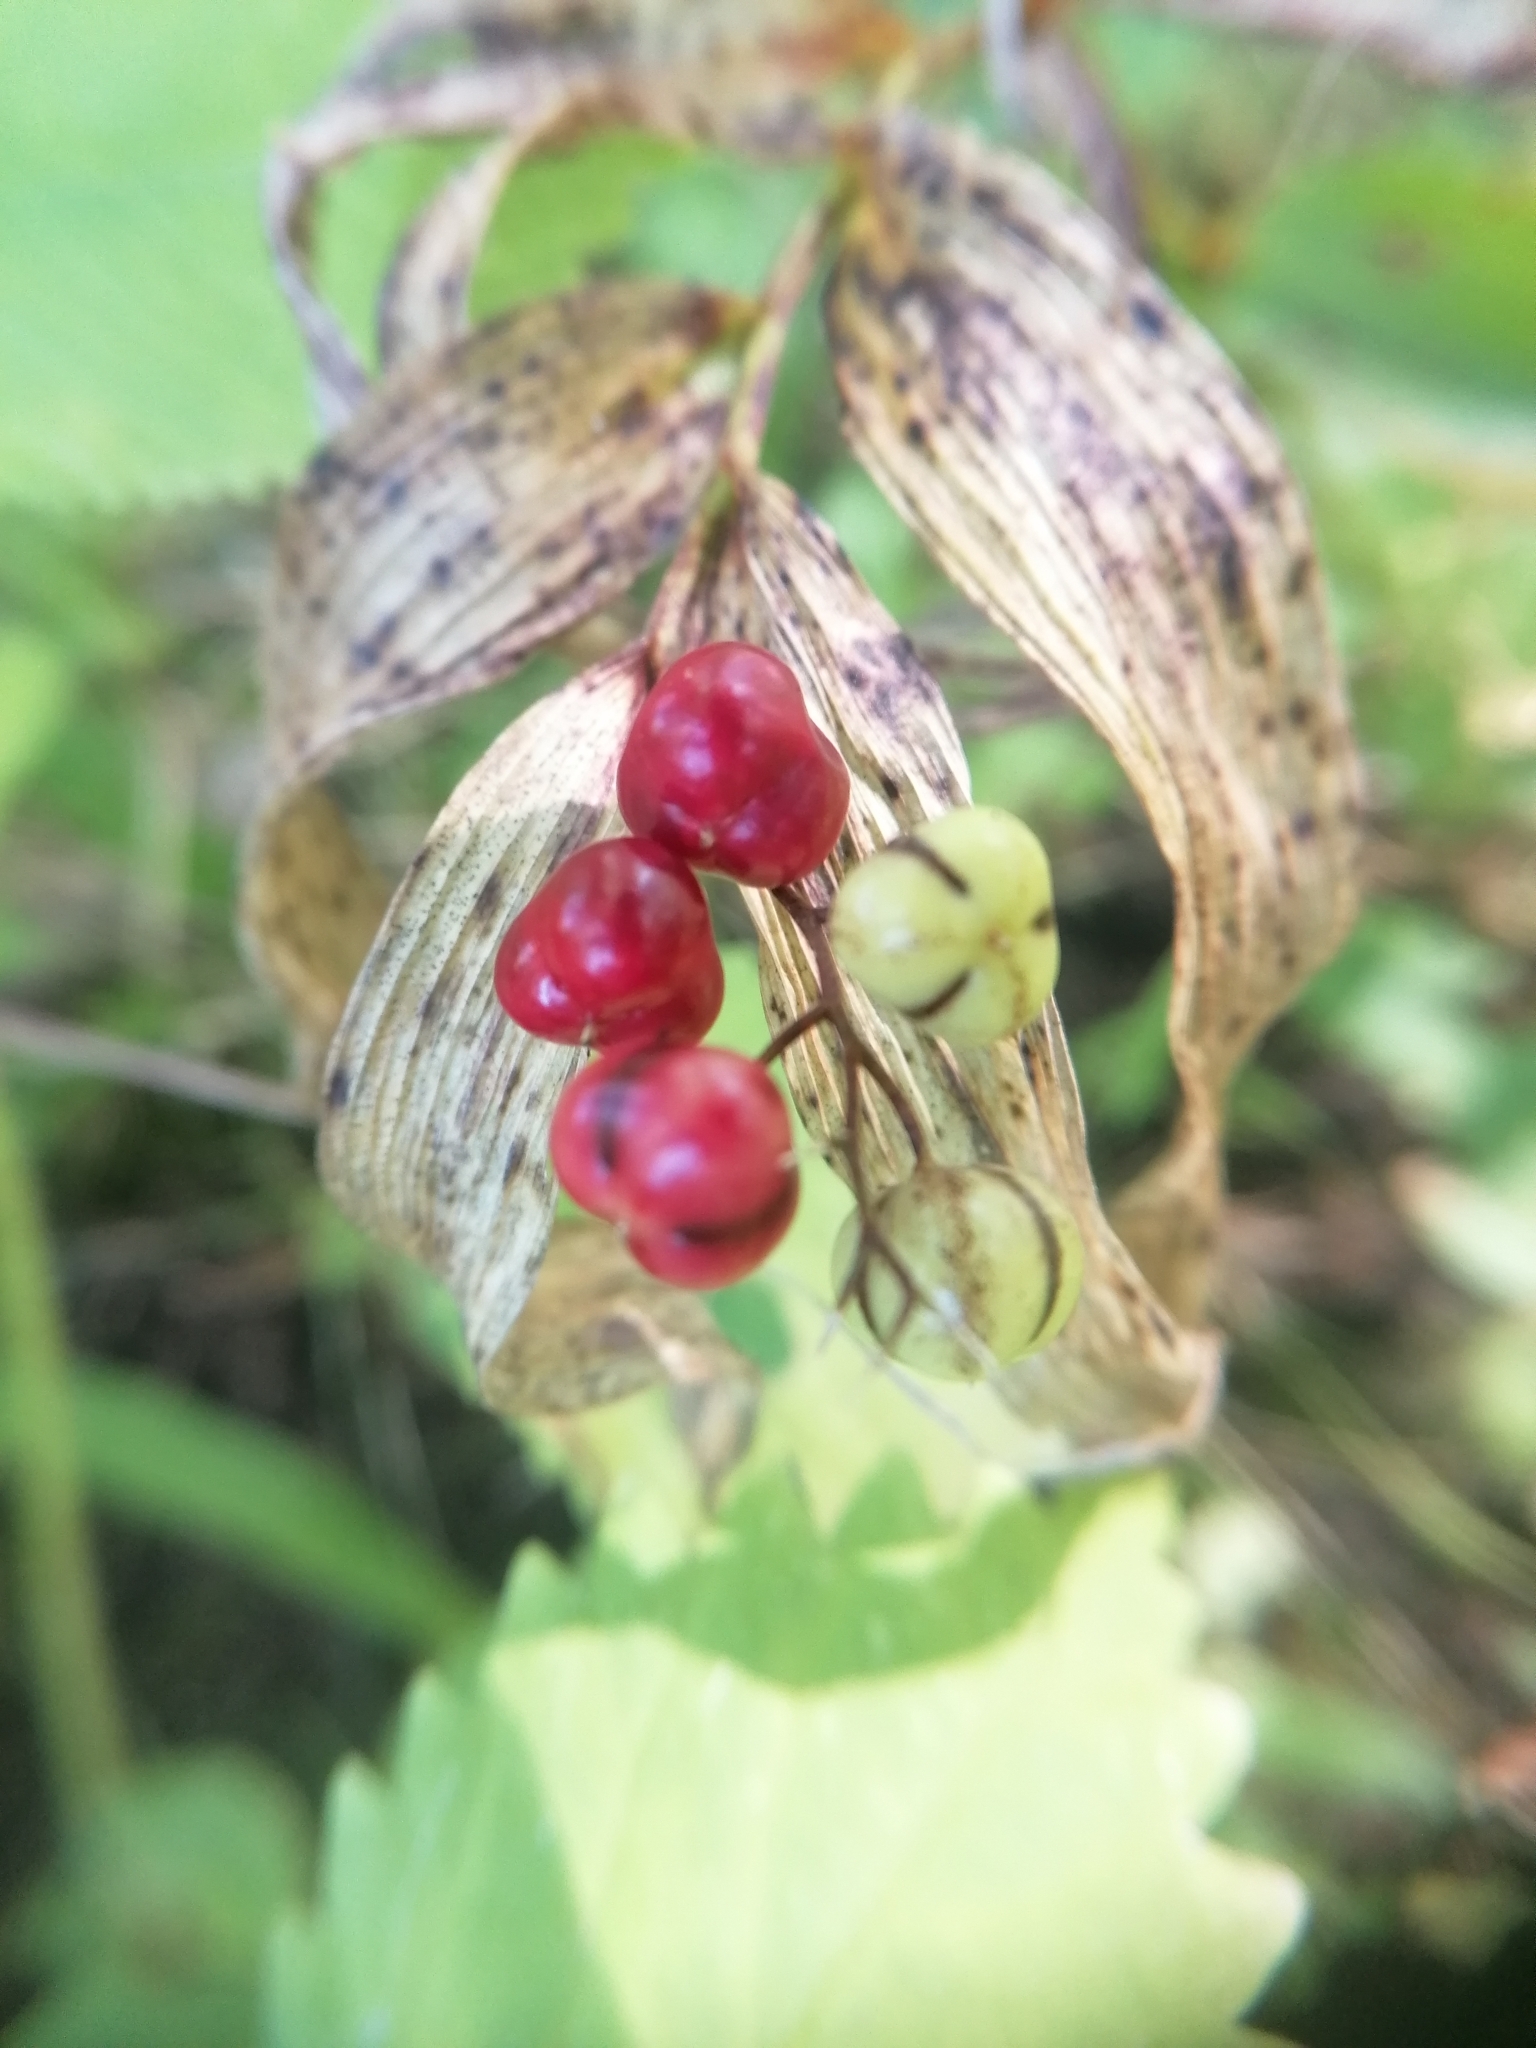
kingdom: Plantae
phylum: Tracheophyta
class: Liliopsida
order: Asparagales
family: Asparagaceae
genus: Maianthemum
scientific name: Maianthemum stellatum
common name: Little false solomon's seal
